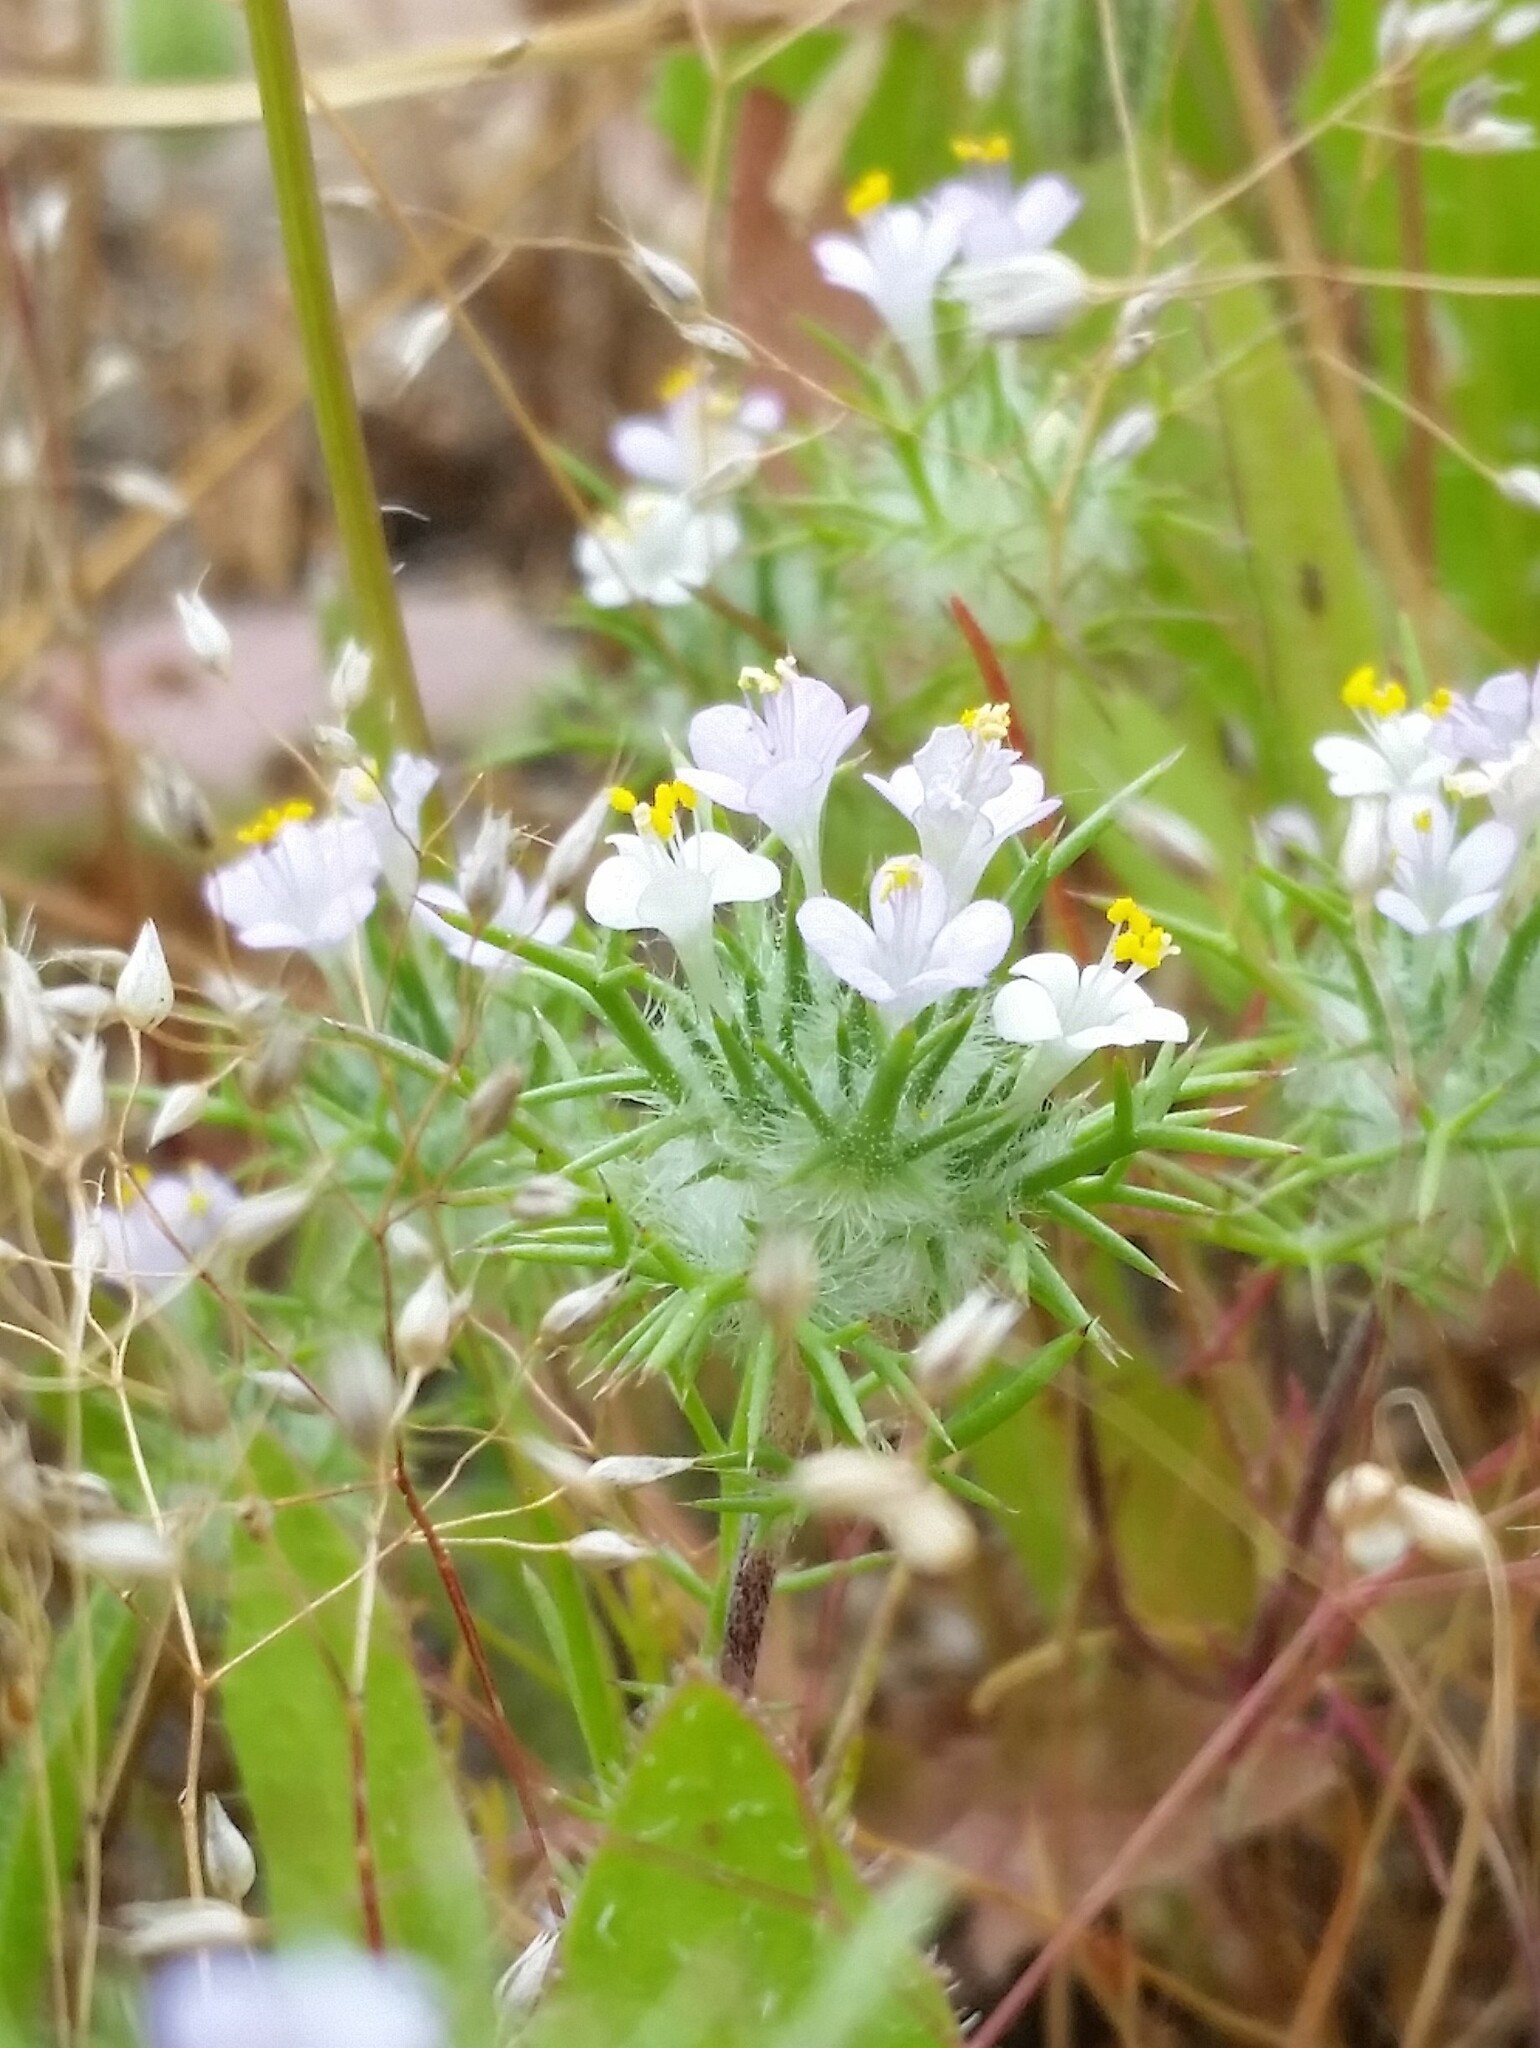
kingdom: Plantae
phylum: Tracheophyta
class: Magnoliopsida
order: Ericales
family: Polemoniaceae
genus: Navarretia
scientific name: Navarretia intertexta
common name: Needle-leaved navarretia
